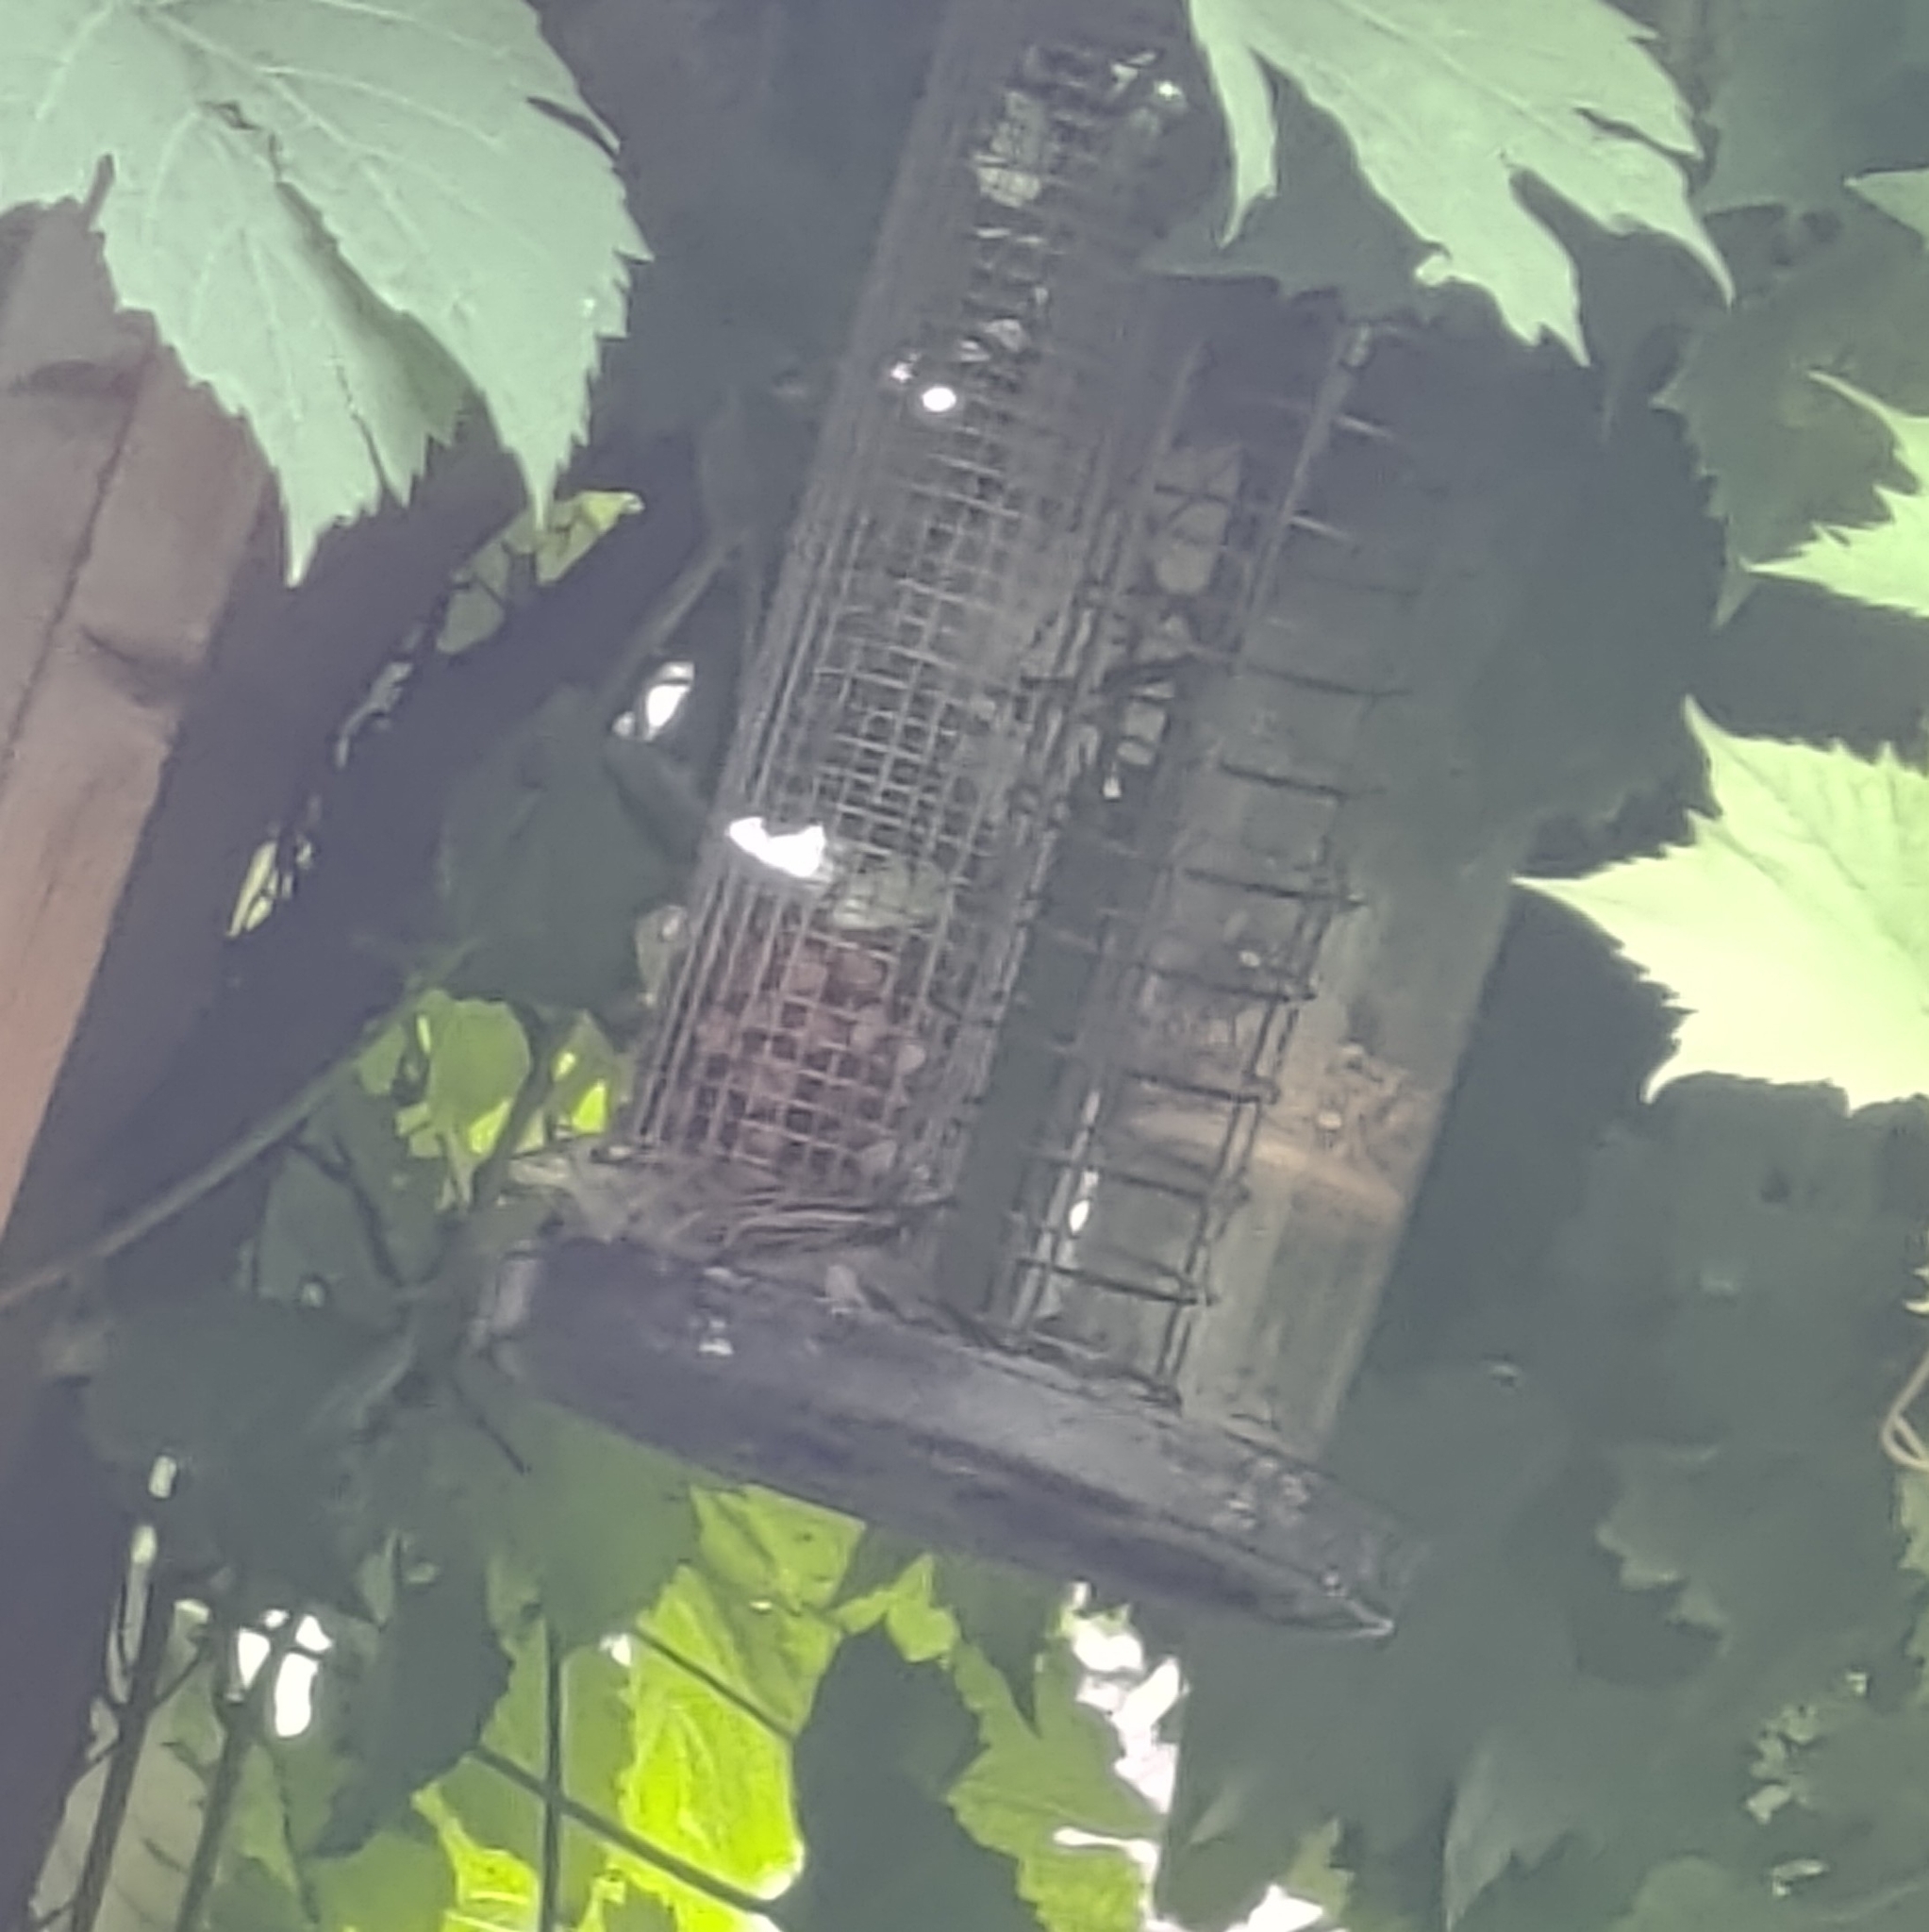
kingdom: Animalia
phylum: Chordata
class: Aves
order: Passeriformes
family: Passeridae
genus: Passer
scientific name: Passer domesticus
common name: House sparrow
